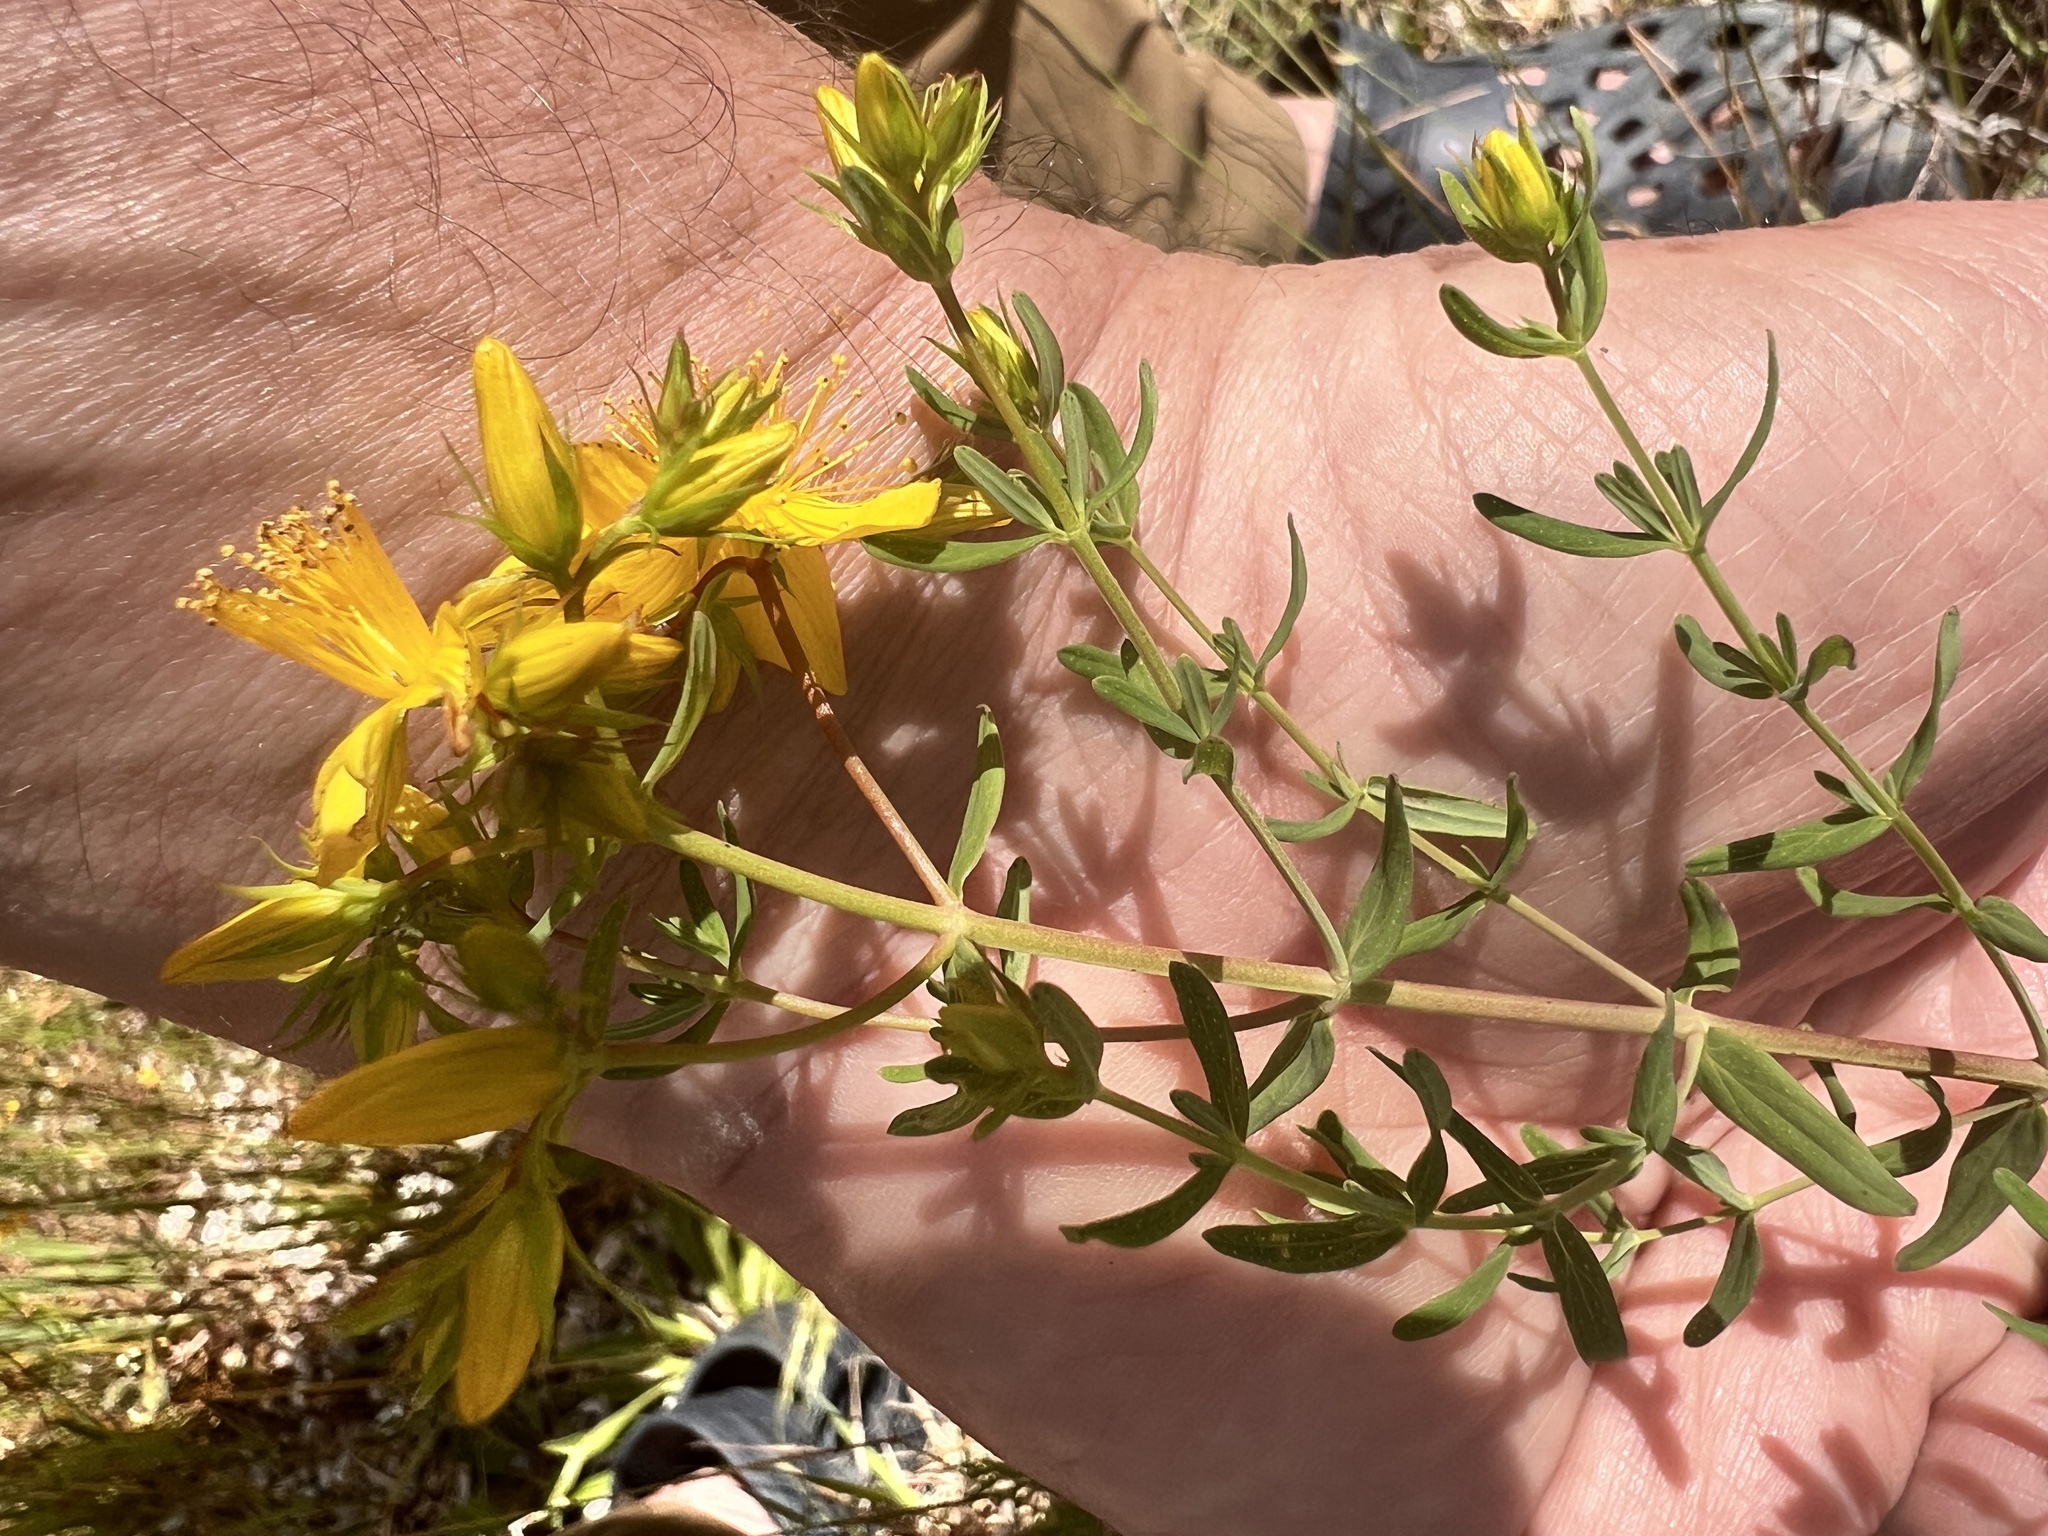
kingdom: Plantae
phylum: Tracheophyta
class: Magnoliopsida
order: Malpighiales
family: Hypericaceae
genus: Hypericum
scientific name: Hypericum perforatum
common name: Common st. johnswort
